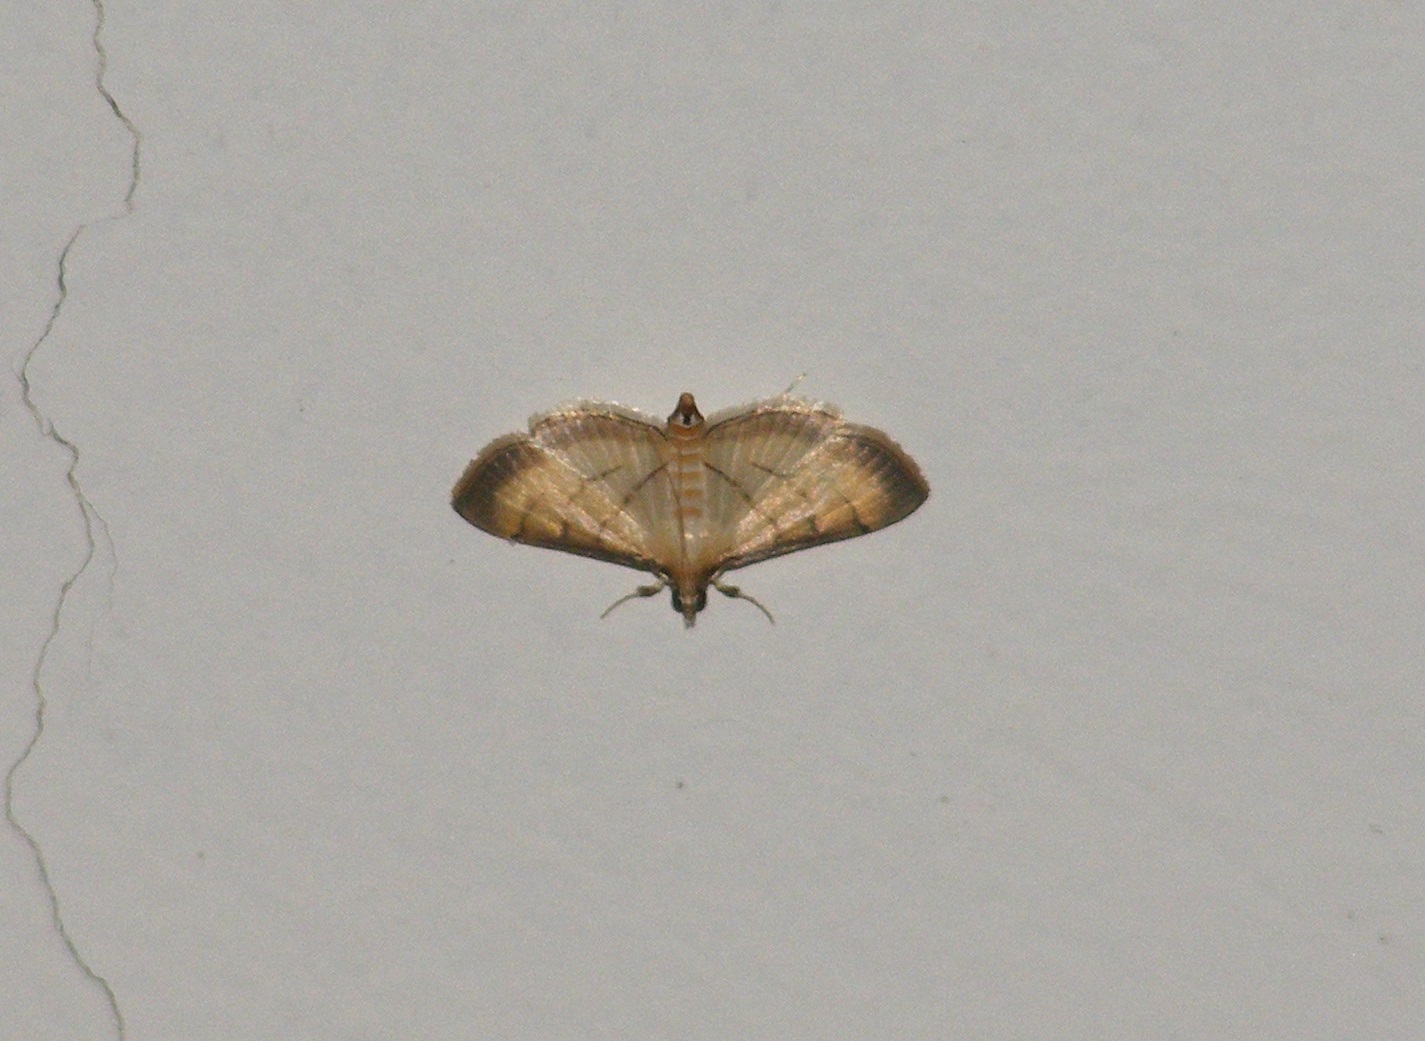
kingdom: Animalia
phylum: Arthropoda
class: Insecta
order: Lepidoptera
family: Crambidae
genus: Cnaphalocrocis
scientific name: Cnaphalocrocis patnalis
